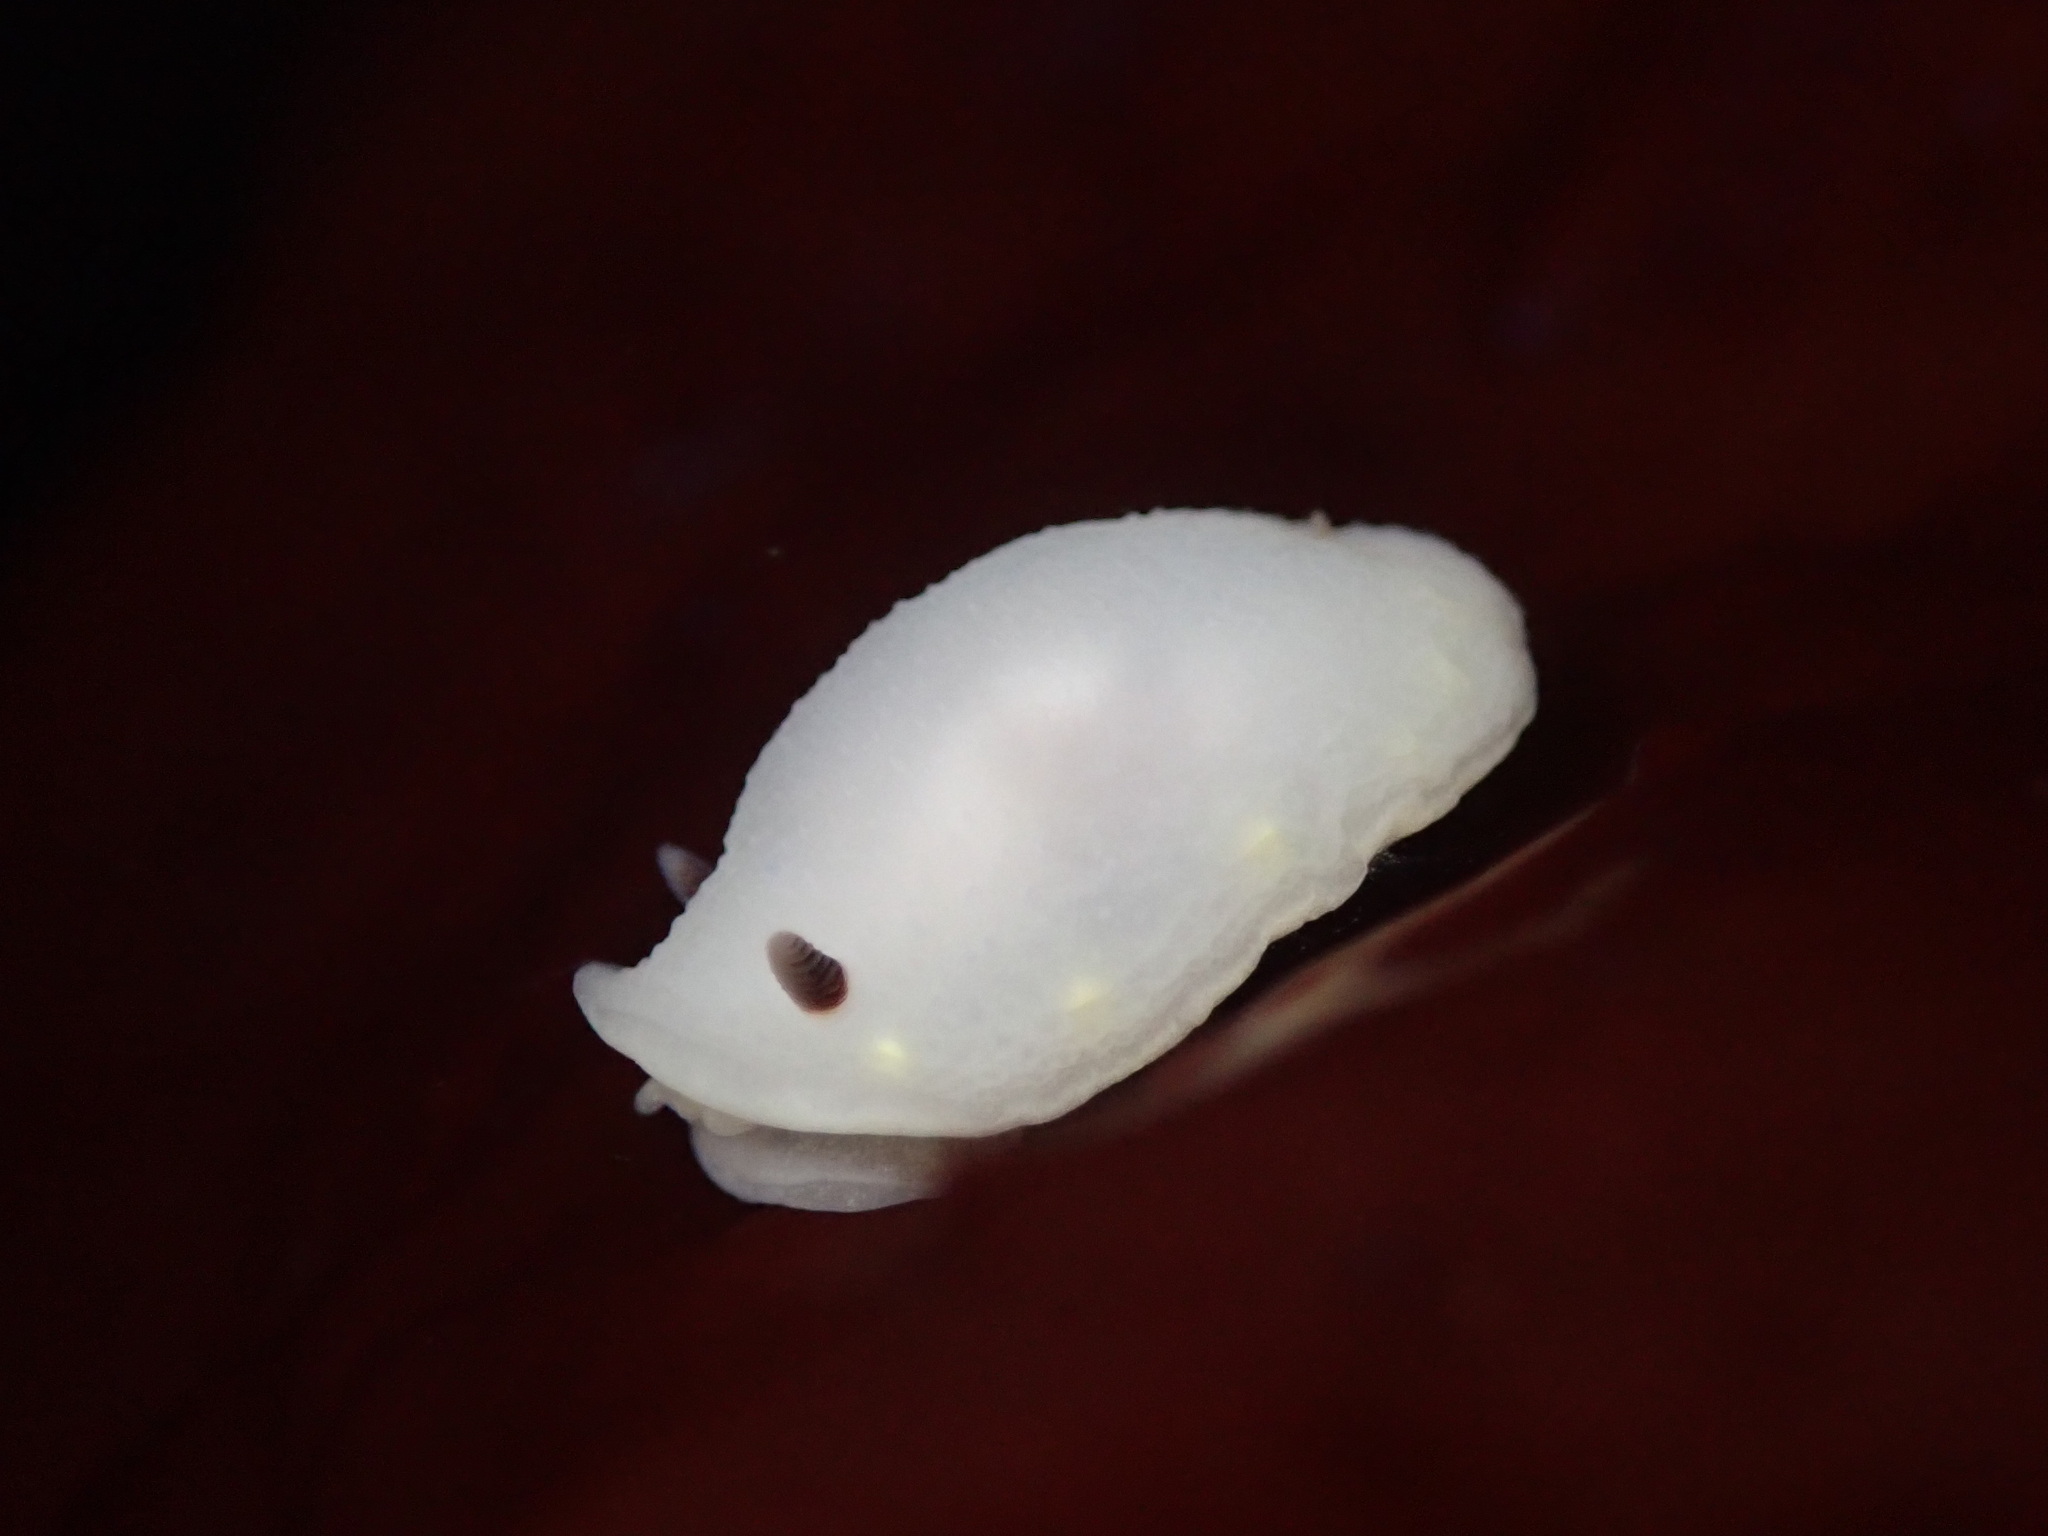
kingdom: Animalia
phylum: Mollusca
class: Gastropoda
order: Nudibranchia
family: Cadlinidae
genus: Cadlina
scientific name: Cadlina flavomaculata
